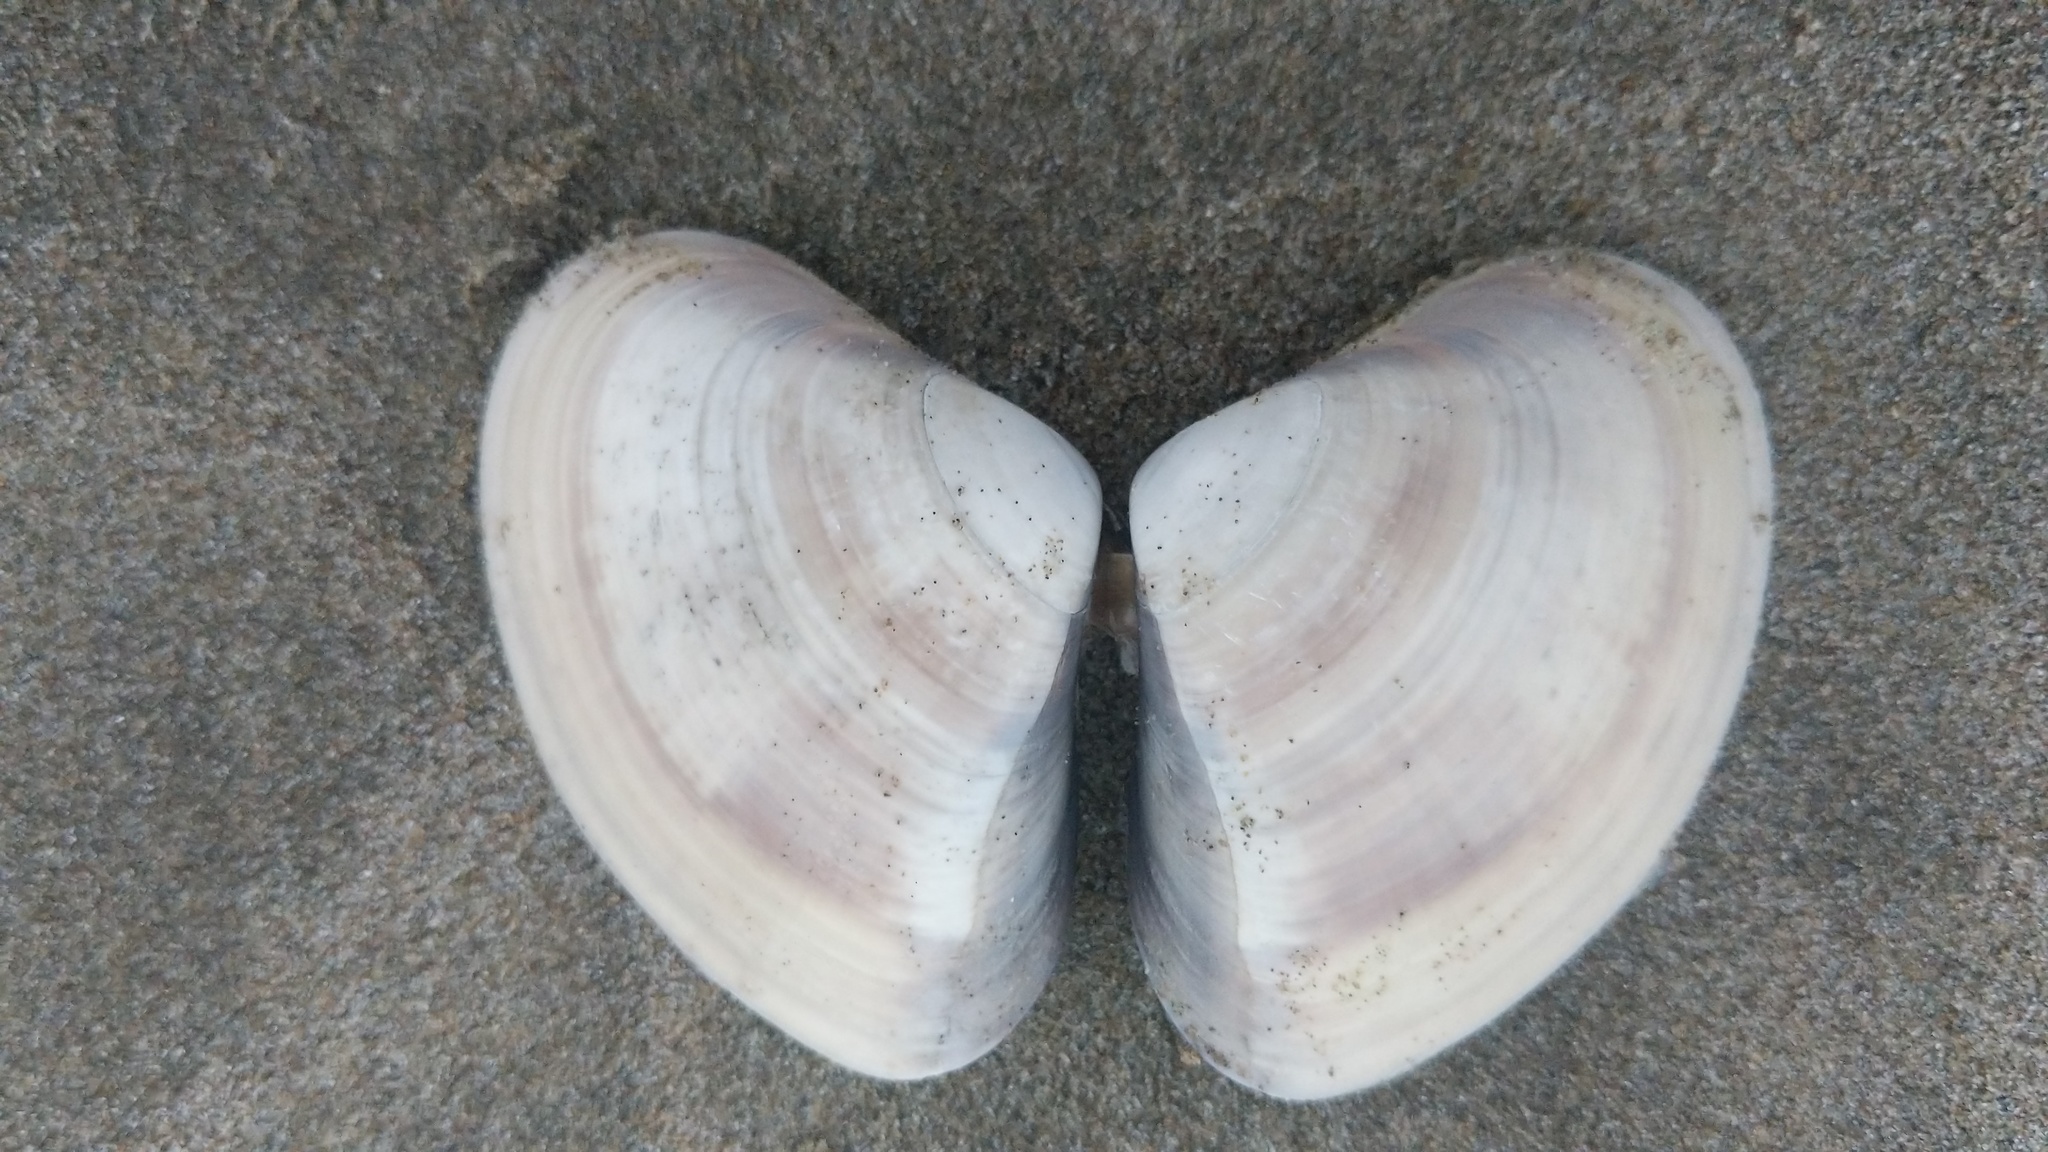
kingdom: Animalia
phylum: Mollusca
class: Bivalvia
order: Venerida
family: Veneridae
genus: Tivela
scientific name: Tivela stultorum
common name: Pismo clam
